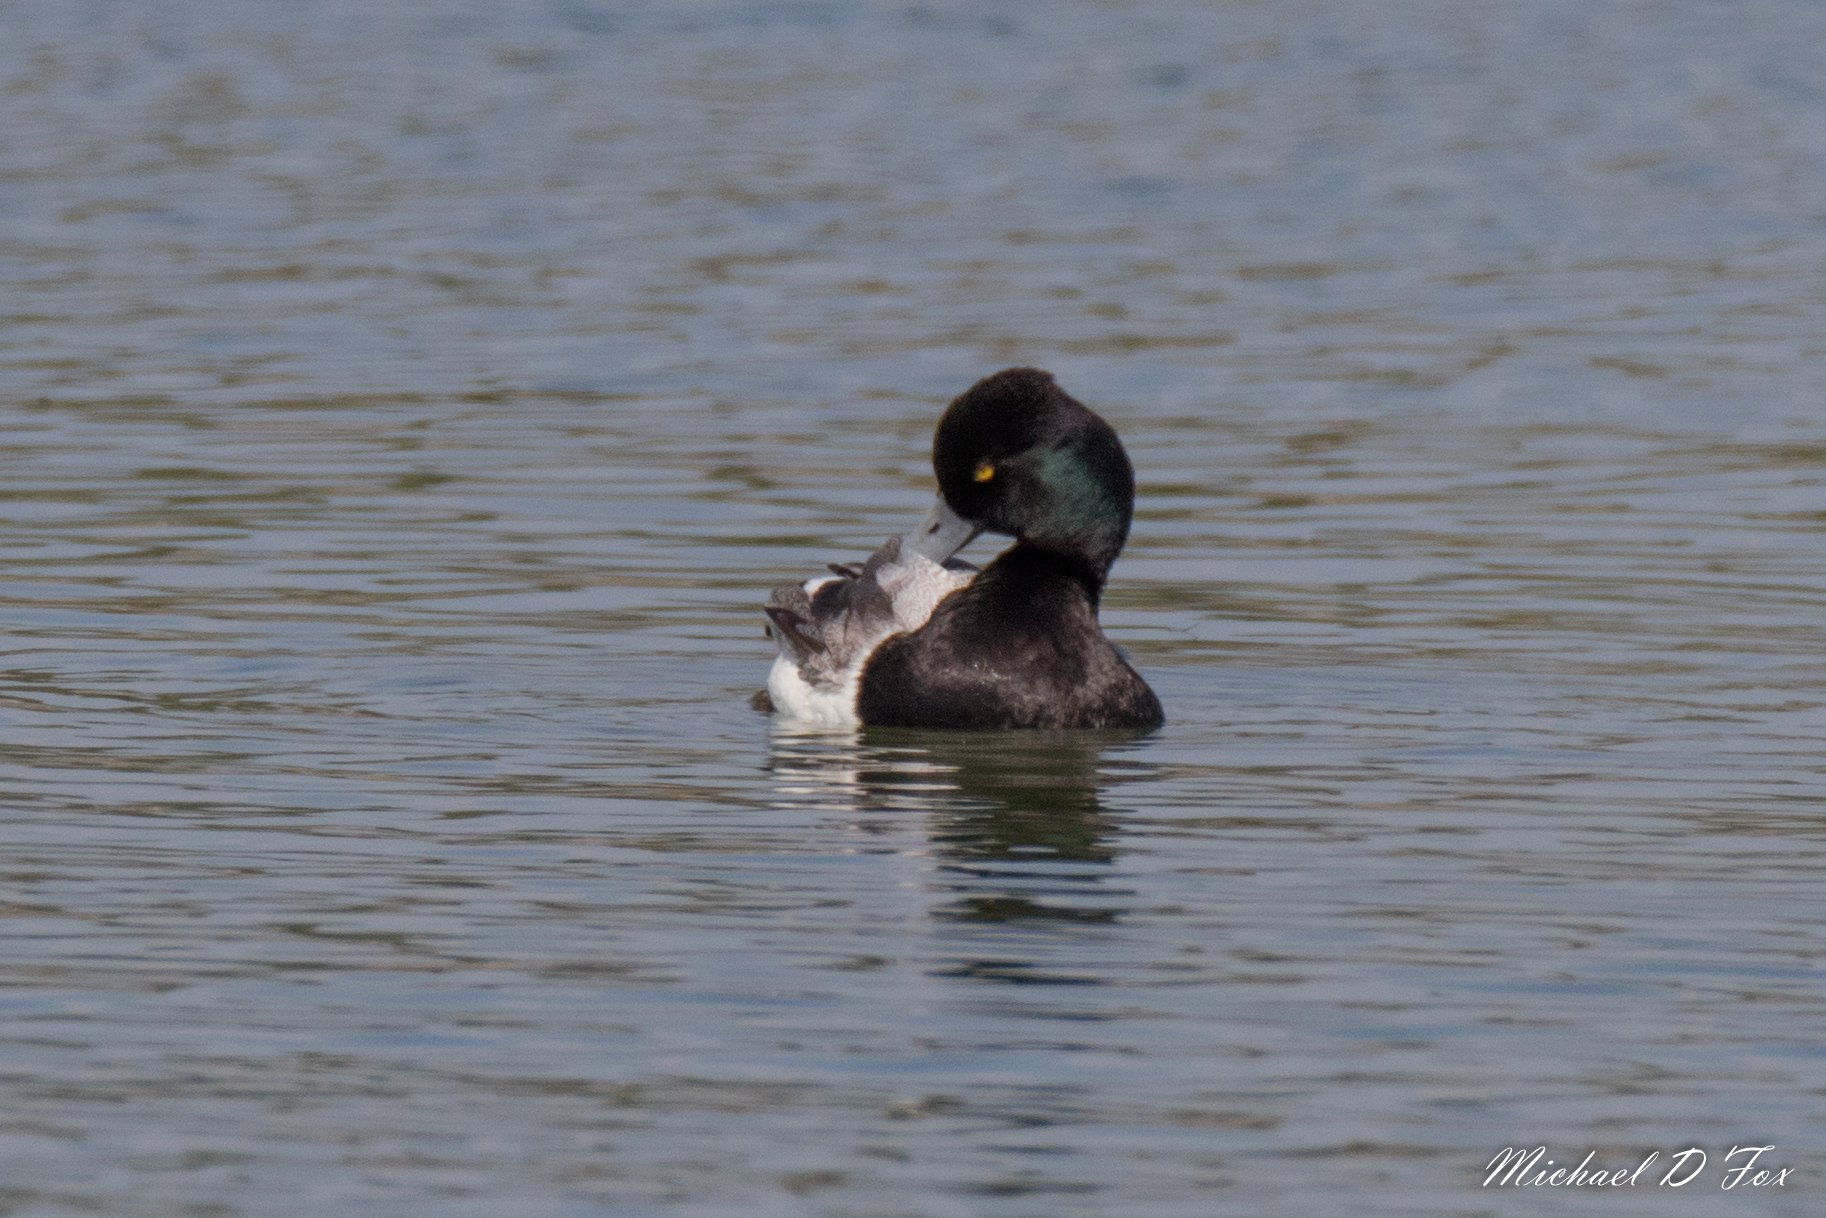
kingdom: Animalia
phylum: Chordata
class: Aves
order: Anseriformes
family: Anatidae
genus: Aythya
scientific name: Aythya affinis
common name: Lesser scaup
